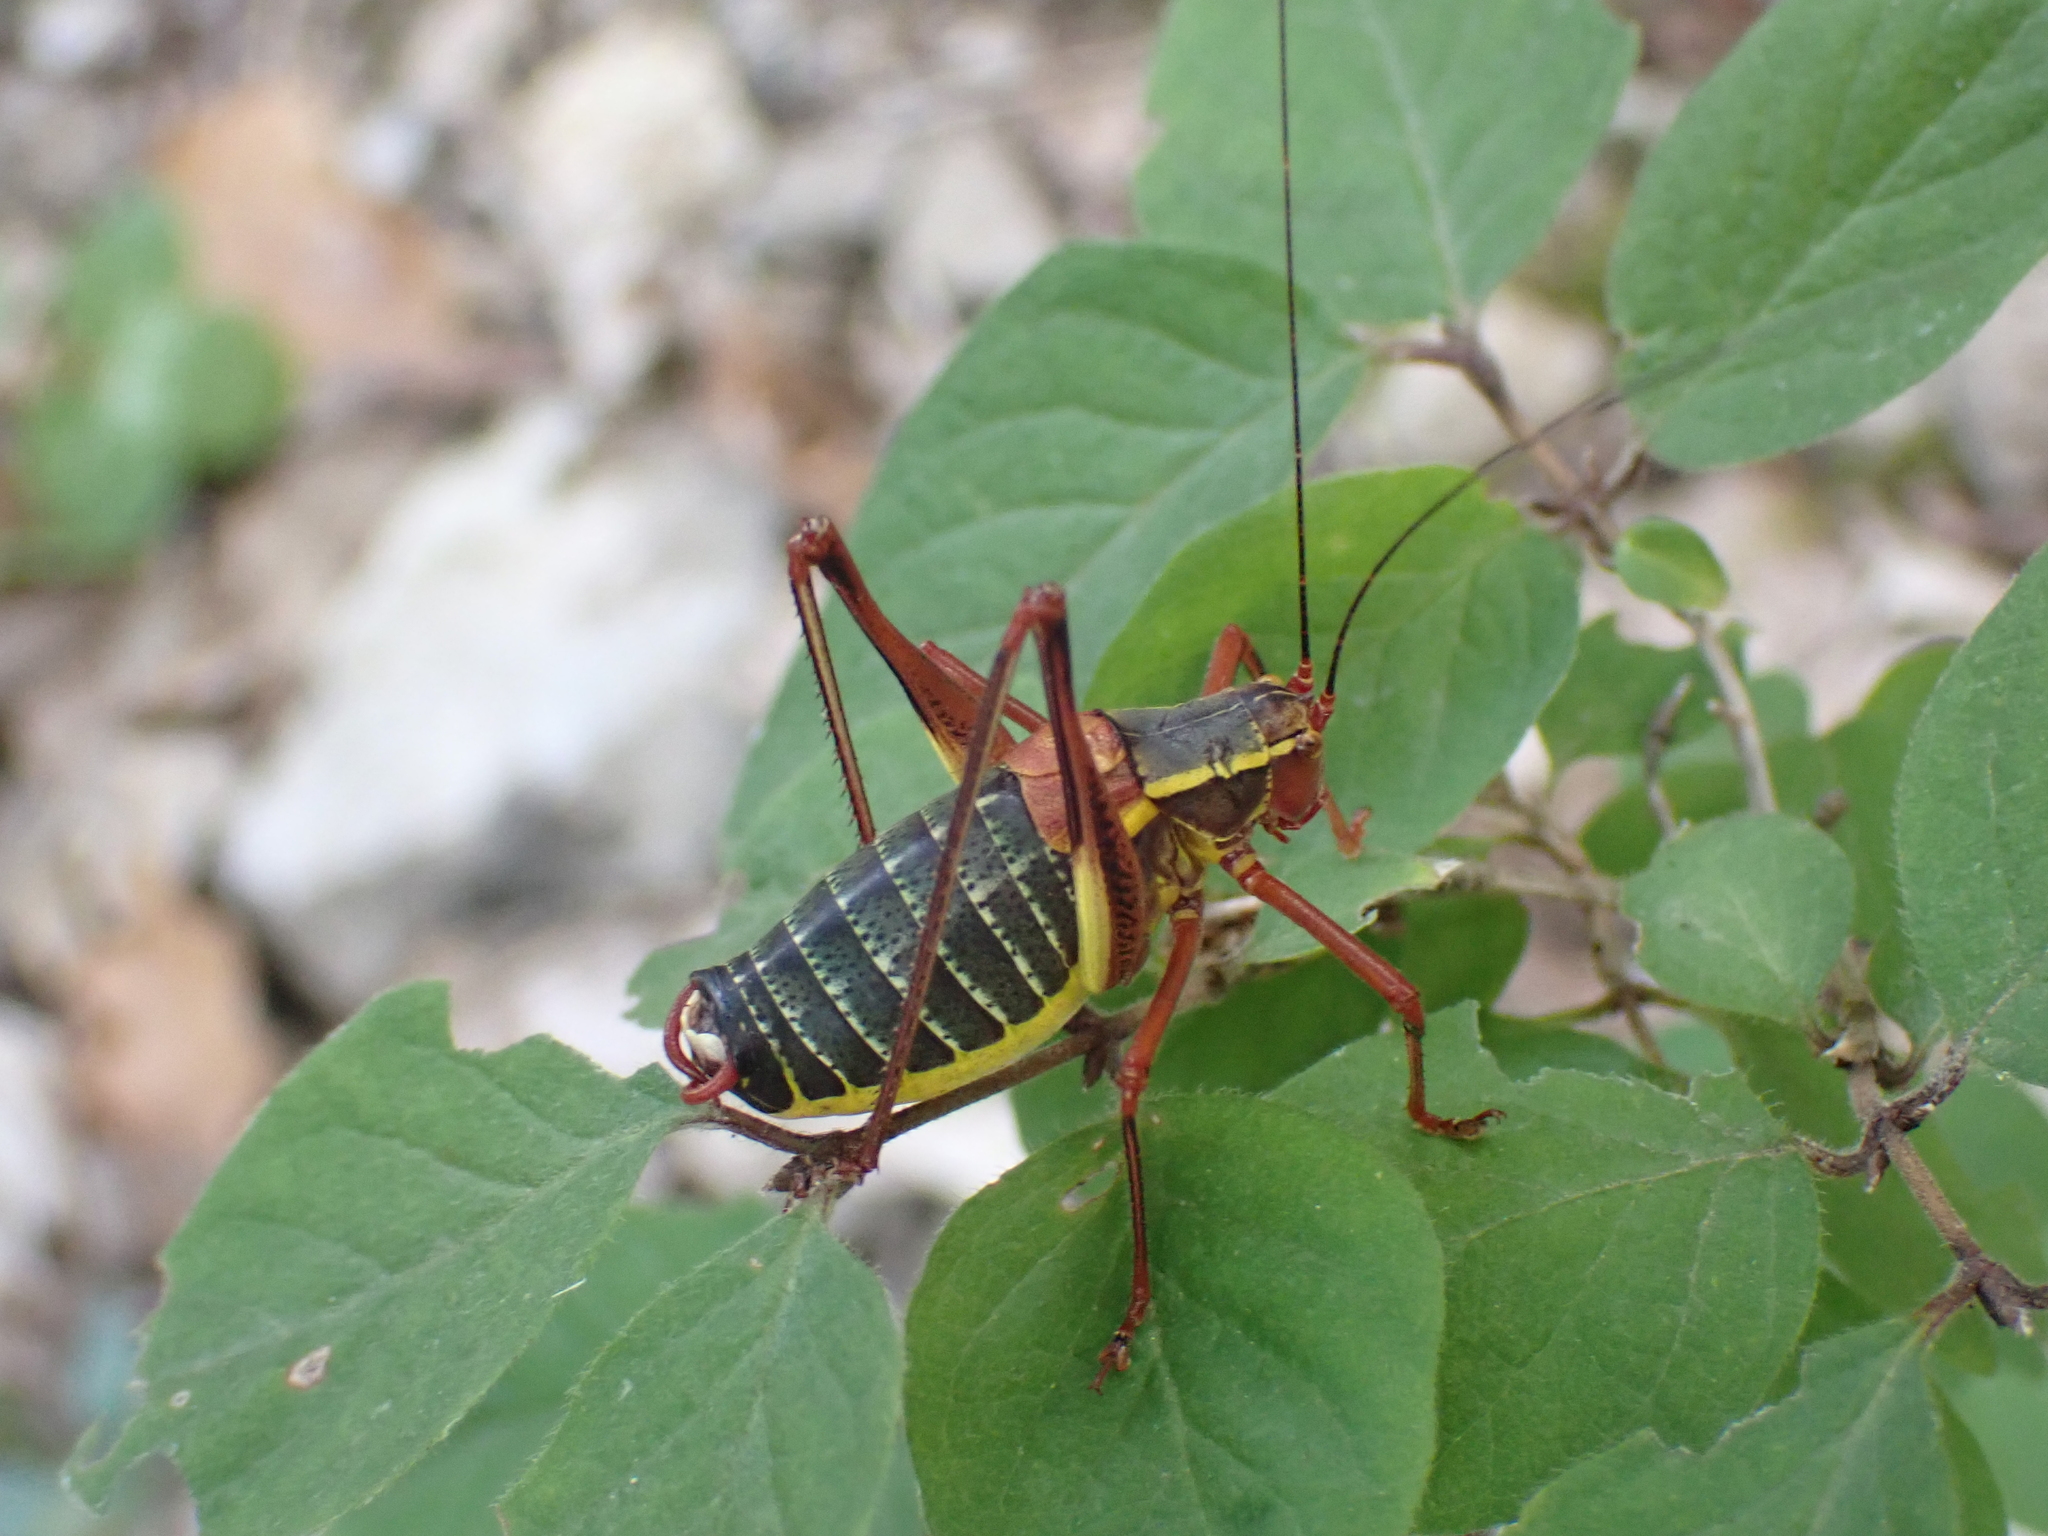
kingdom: Animalia
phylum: Arthropoda
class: Insecta
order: Orthoptera
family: Tettigoniidae
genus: Barbitistes
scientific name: Barbitistes serricauda
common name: Saw-tailed bush-cricket
